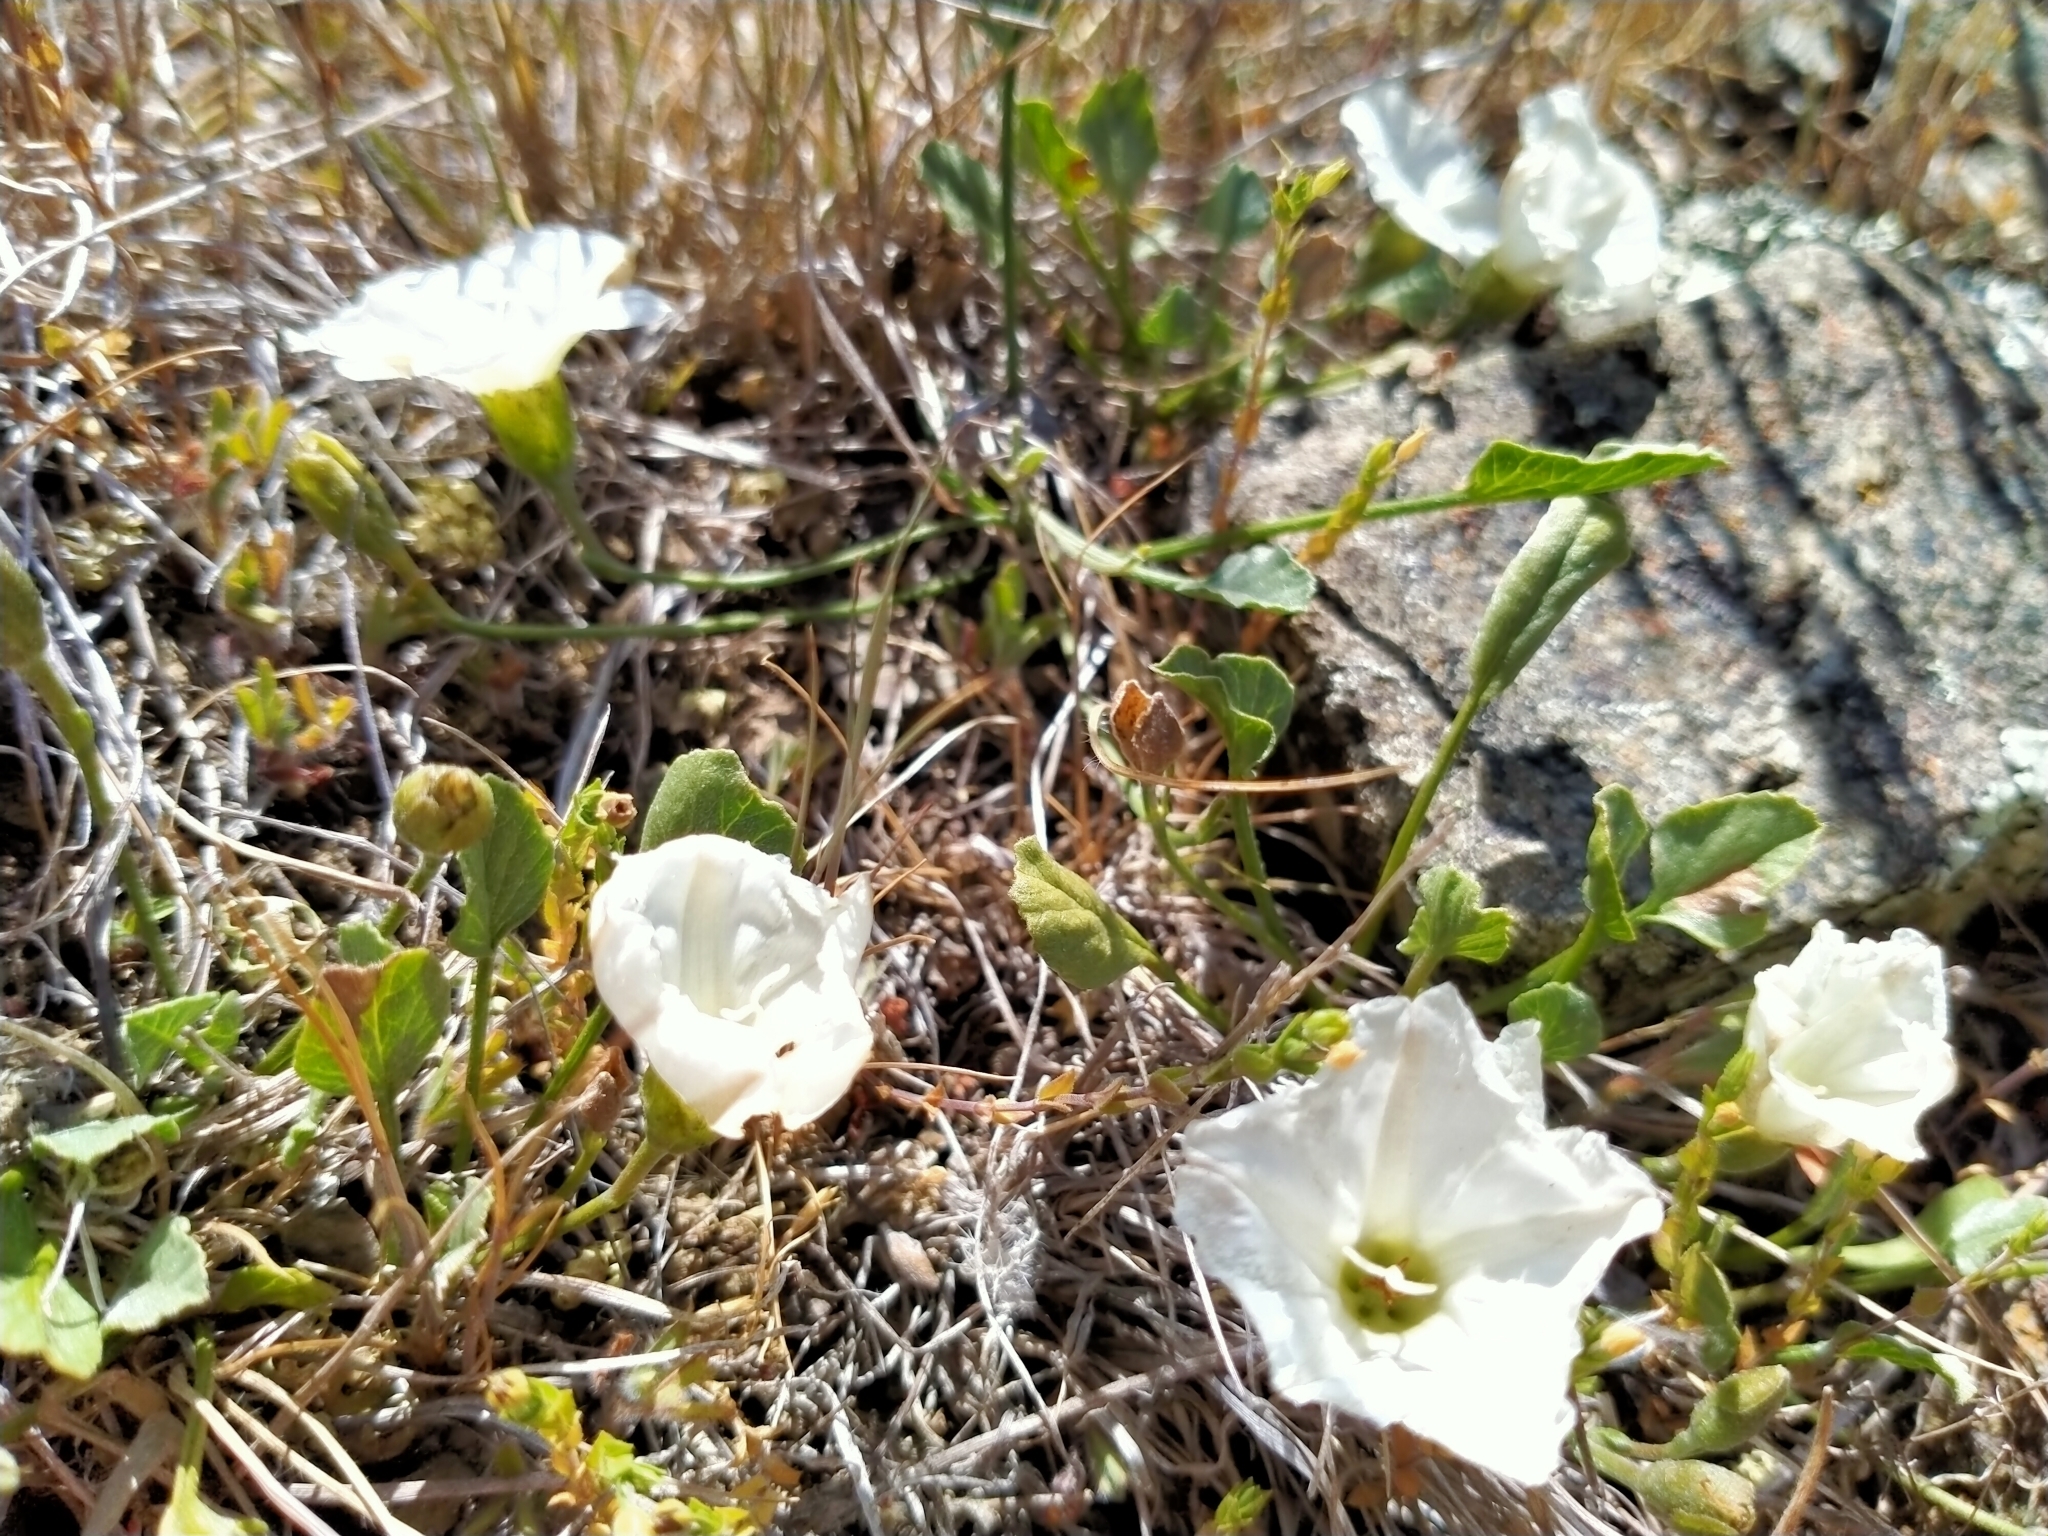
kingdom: Plantae
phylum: Tracheophyta
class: Magnoliopsida
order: Solanales
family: Convolvulaceae
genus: Convolvulus
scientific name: Convolvulus waitaha
